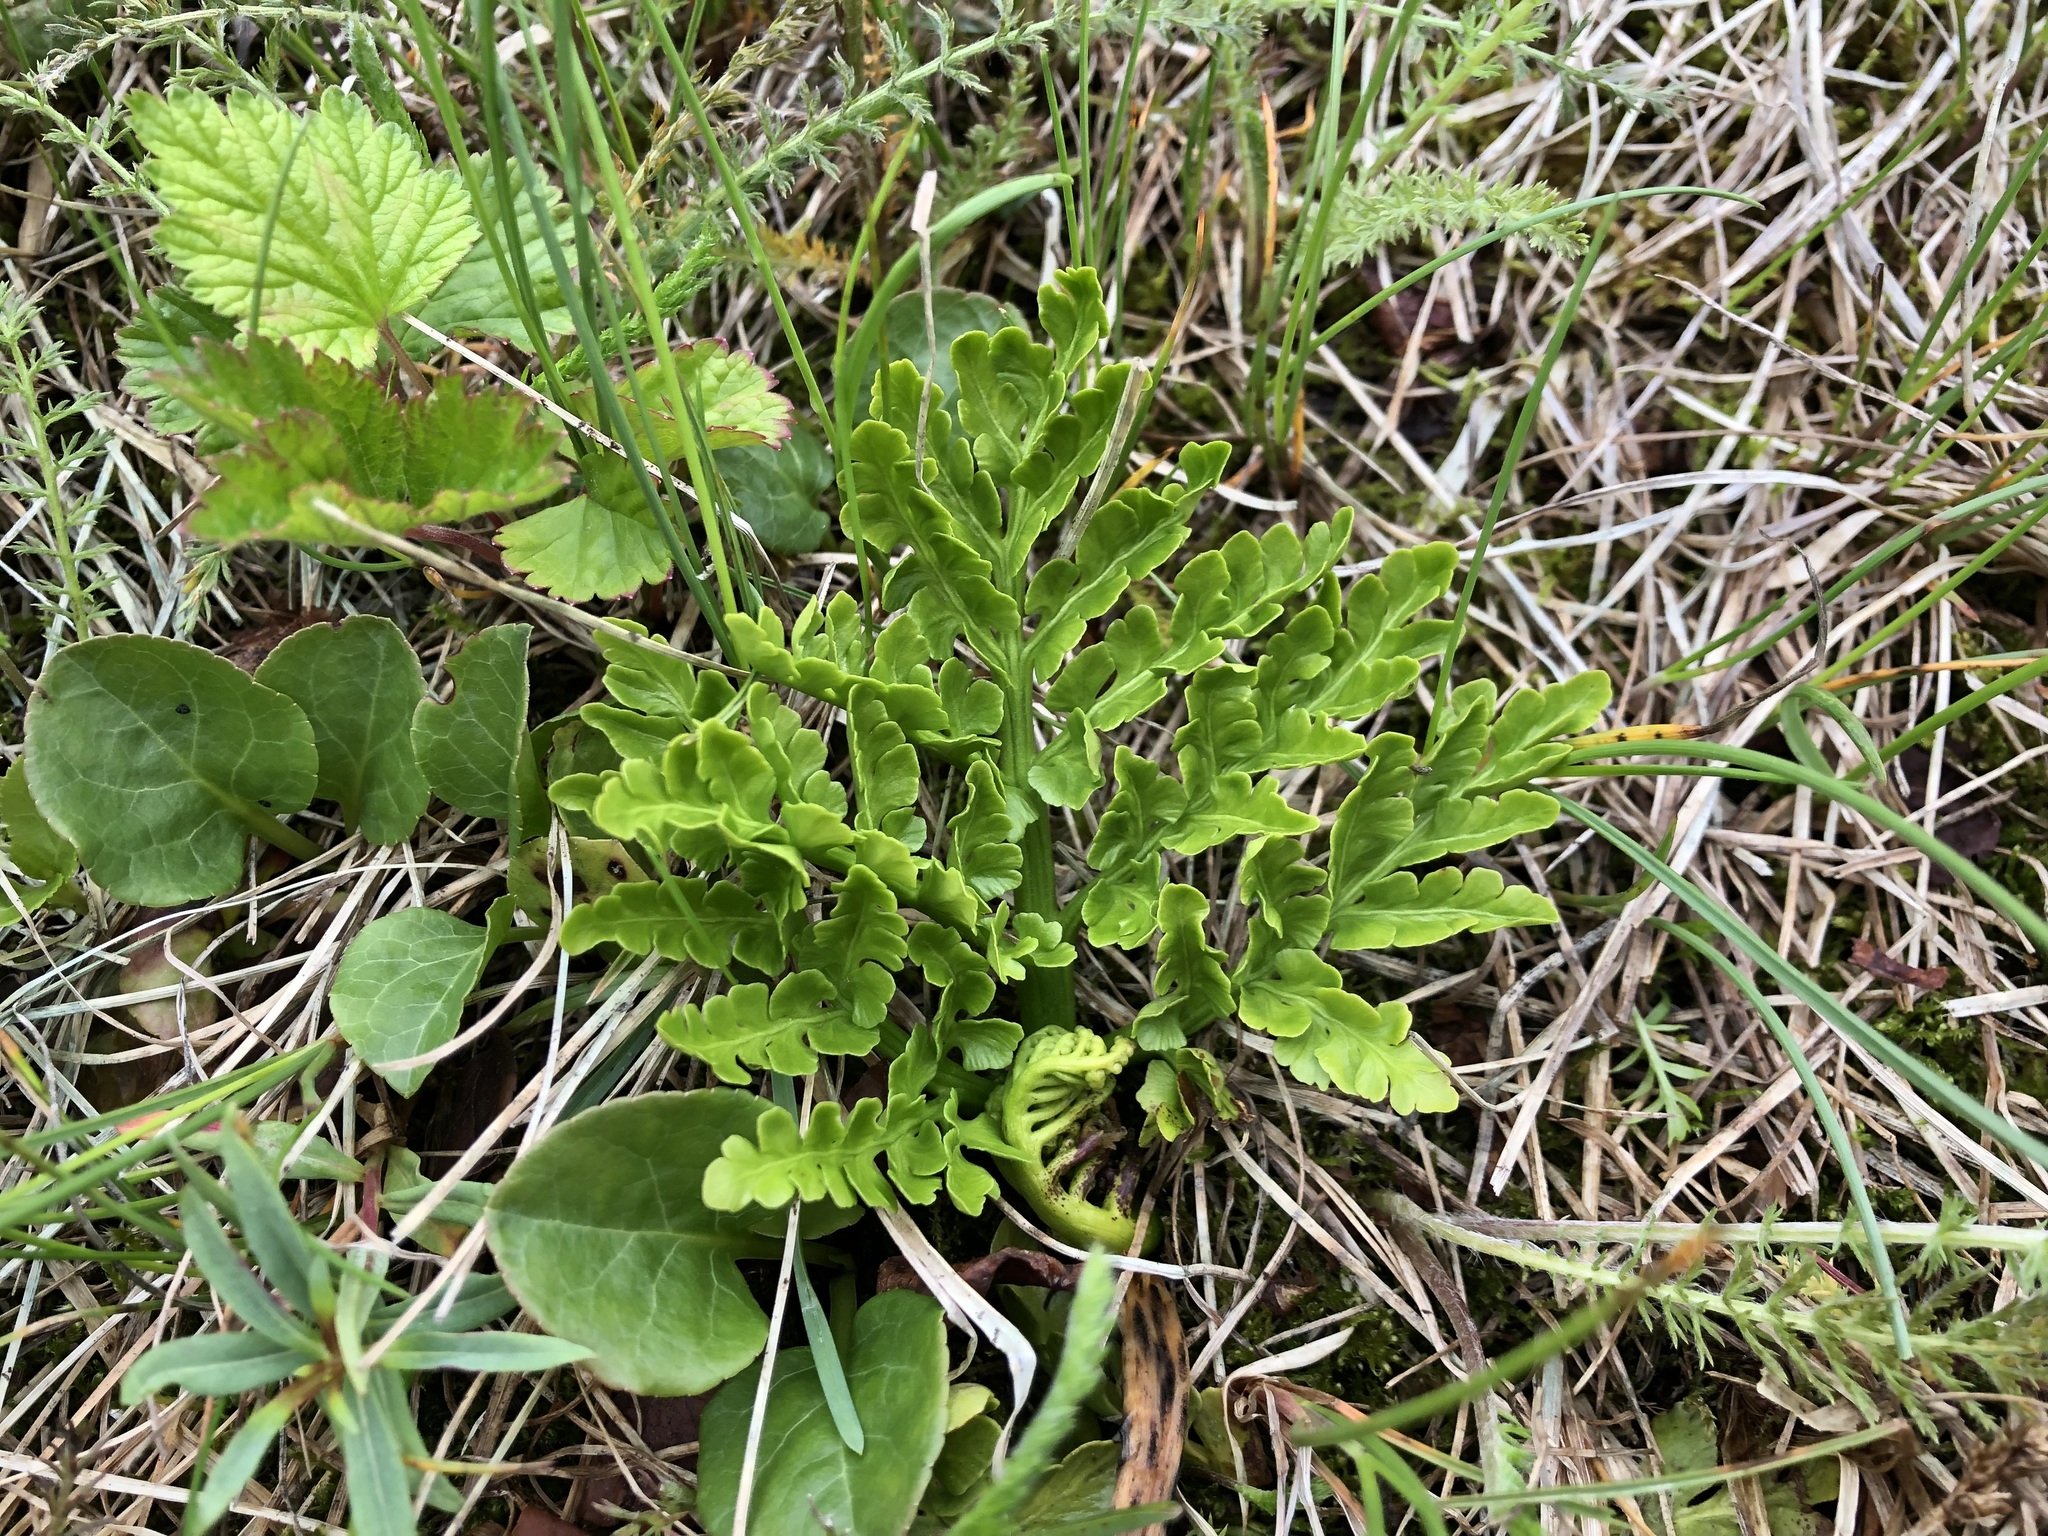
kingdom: Plantae
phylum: Tracheophyta
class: Polypodiopsida
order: Ophioglossales
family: Ophioglossaceae
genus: Sceptridium
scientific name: Sceptridium multifidum
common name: Leathery grape fern
